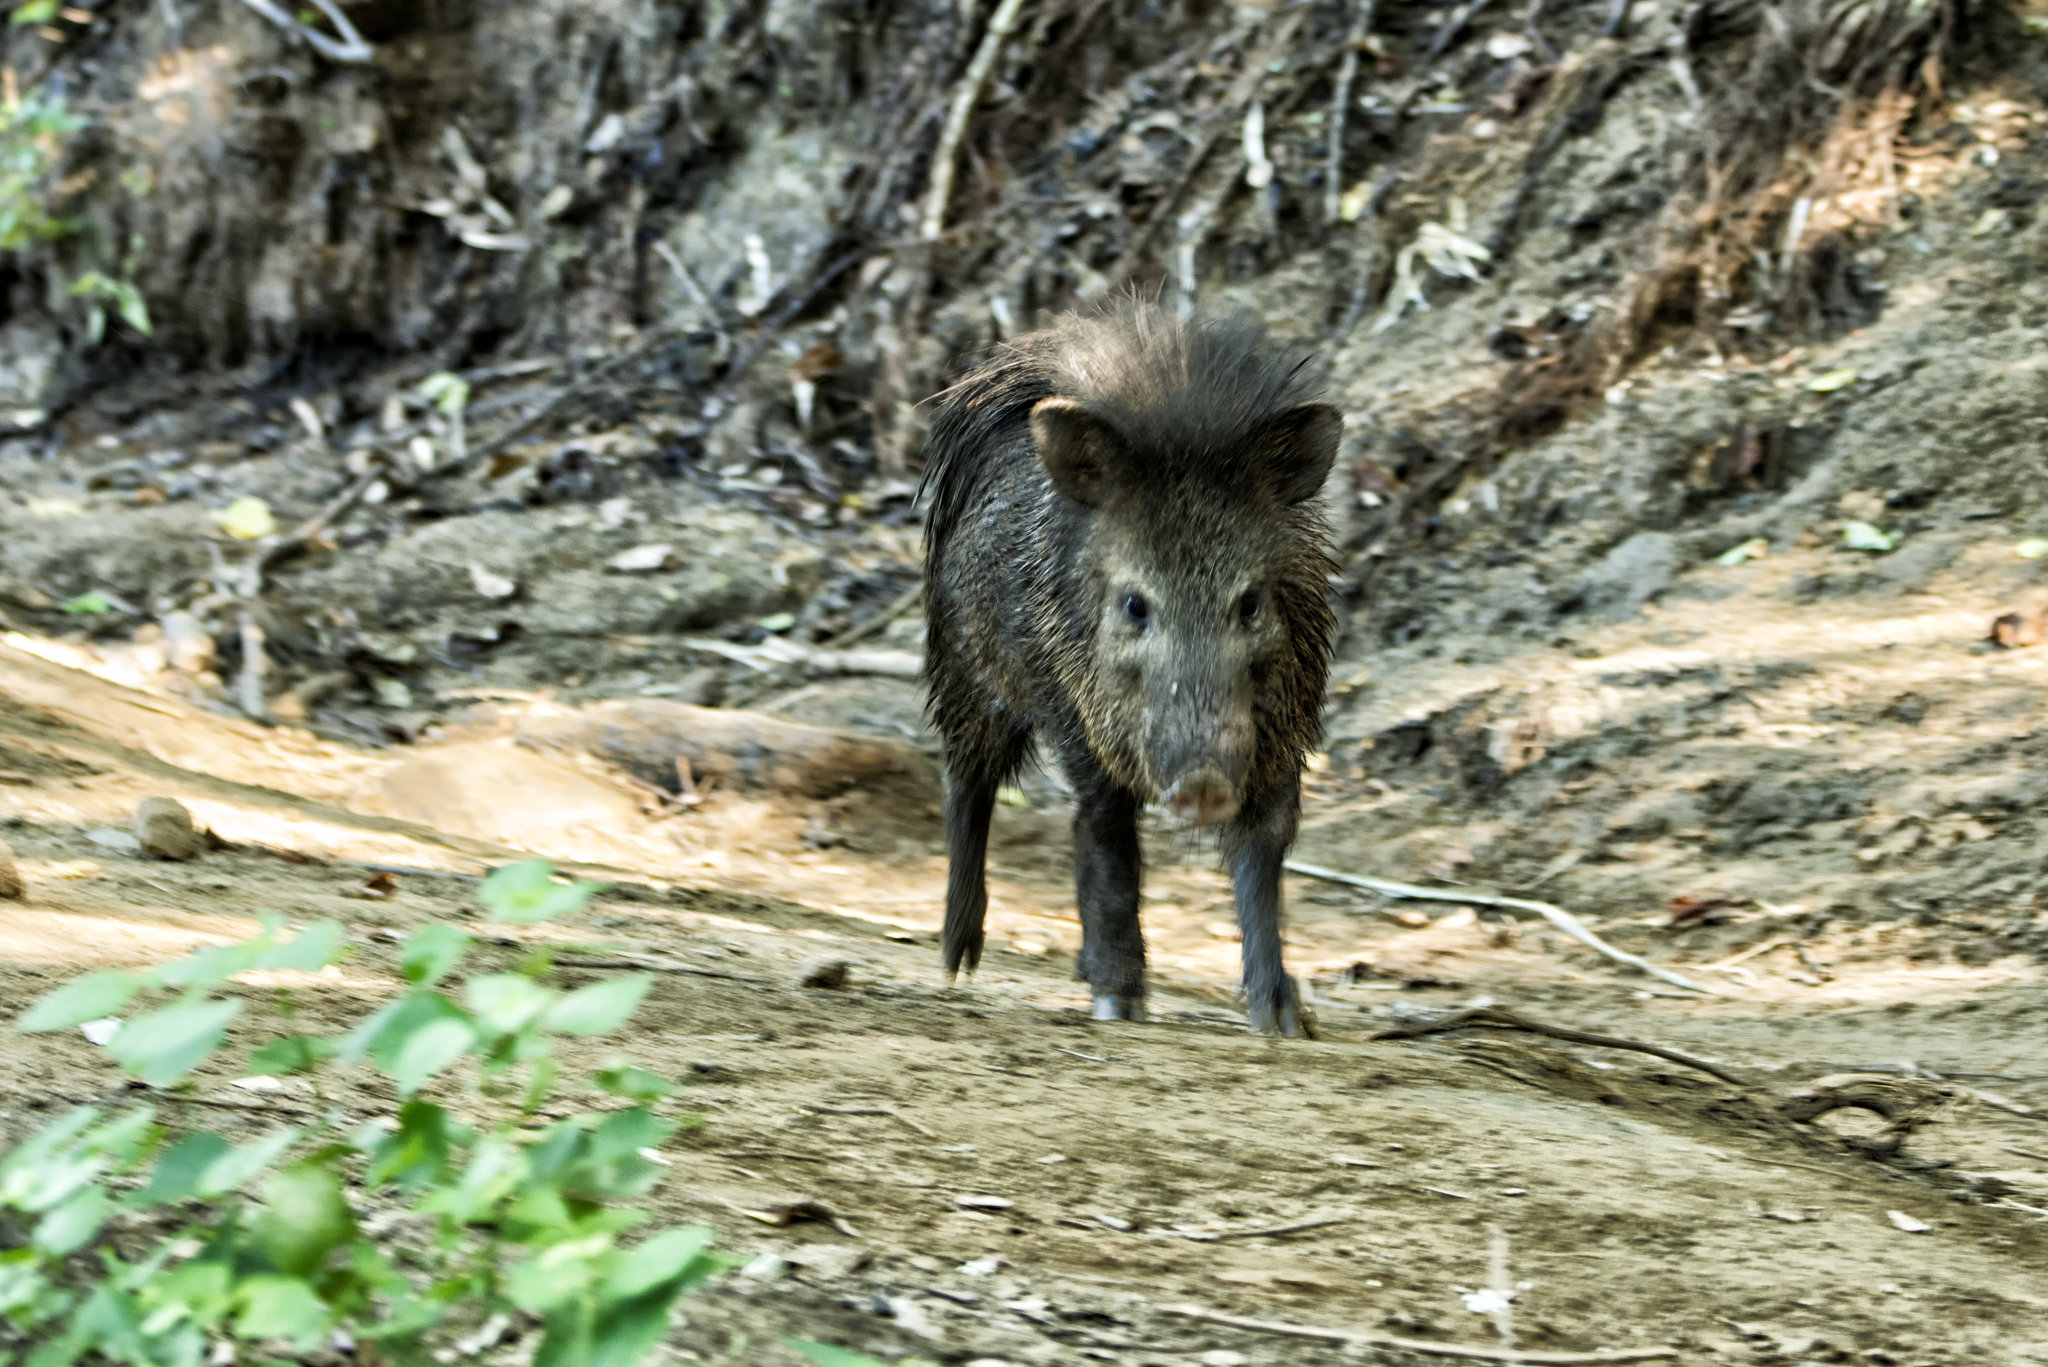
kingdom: Animalia
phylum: Chordata
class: Mammalia
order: Artiodactyla
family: Tayassuidae
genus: Pecari
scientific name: Pecari tajacu
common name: Collared peccary
